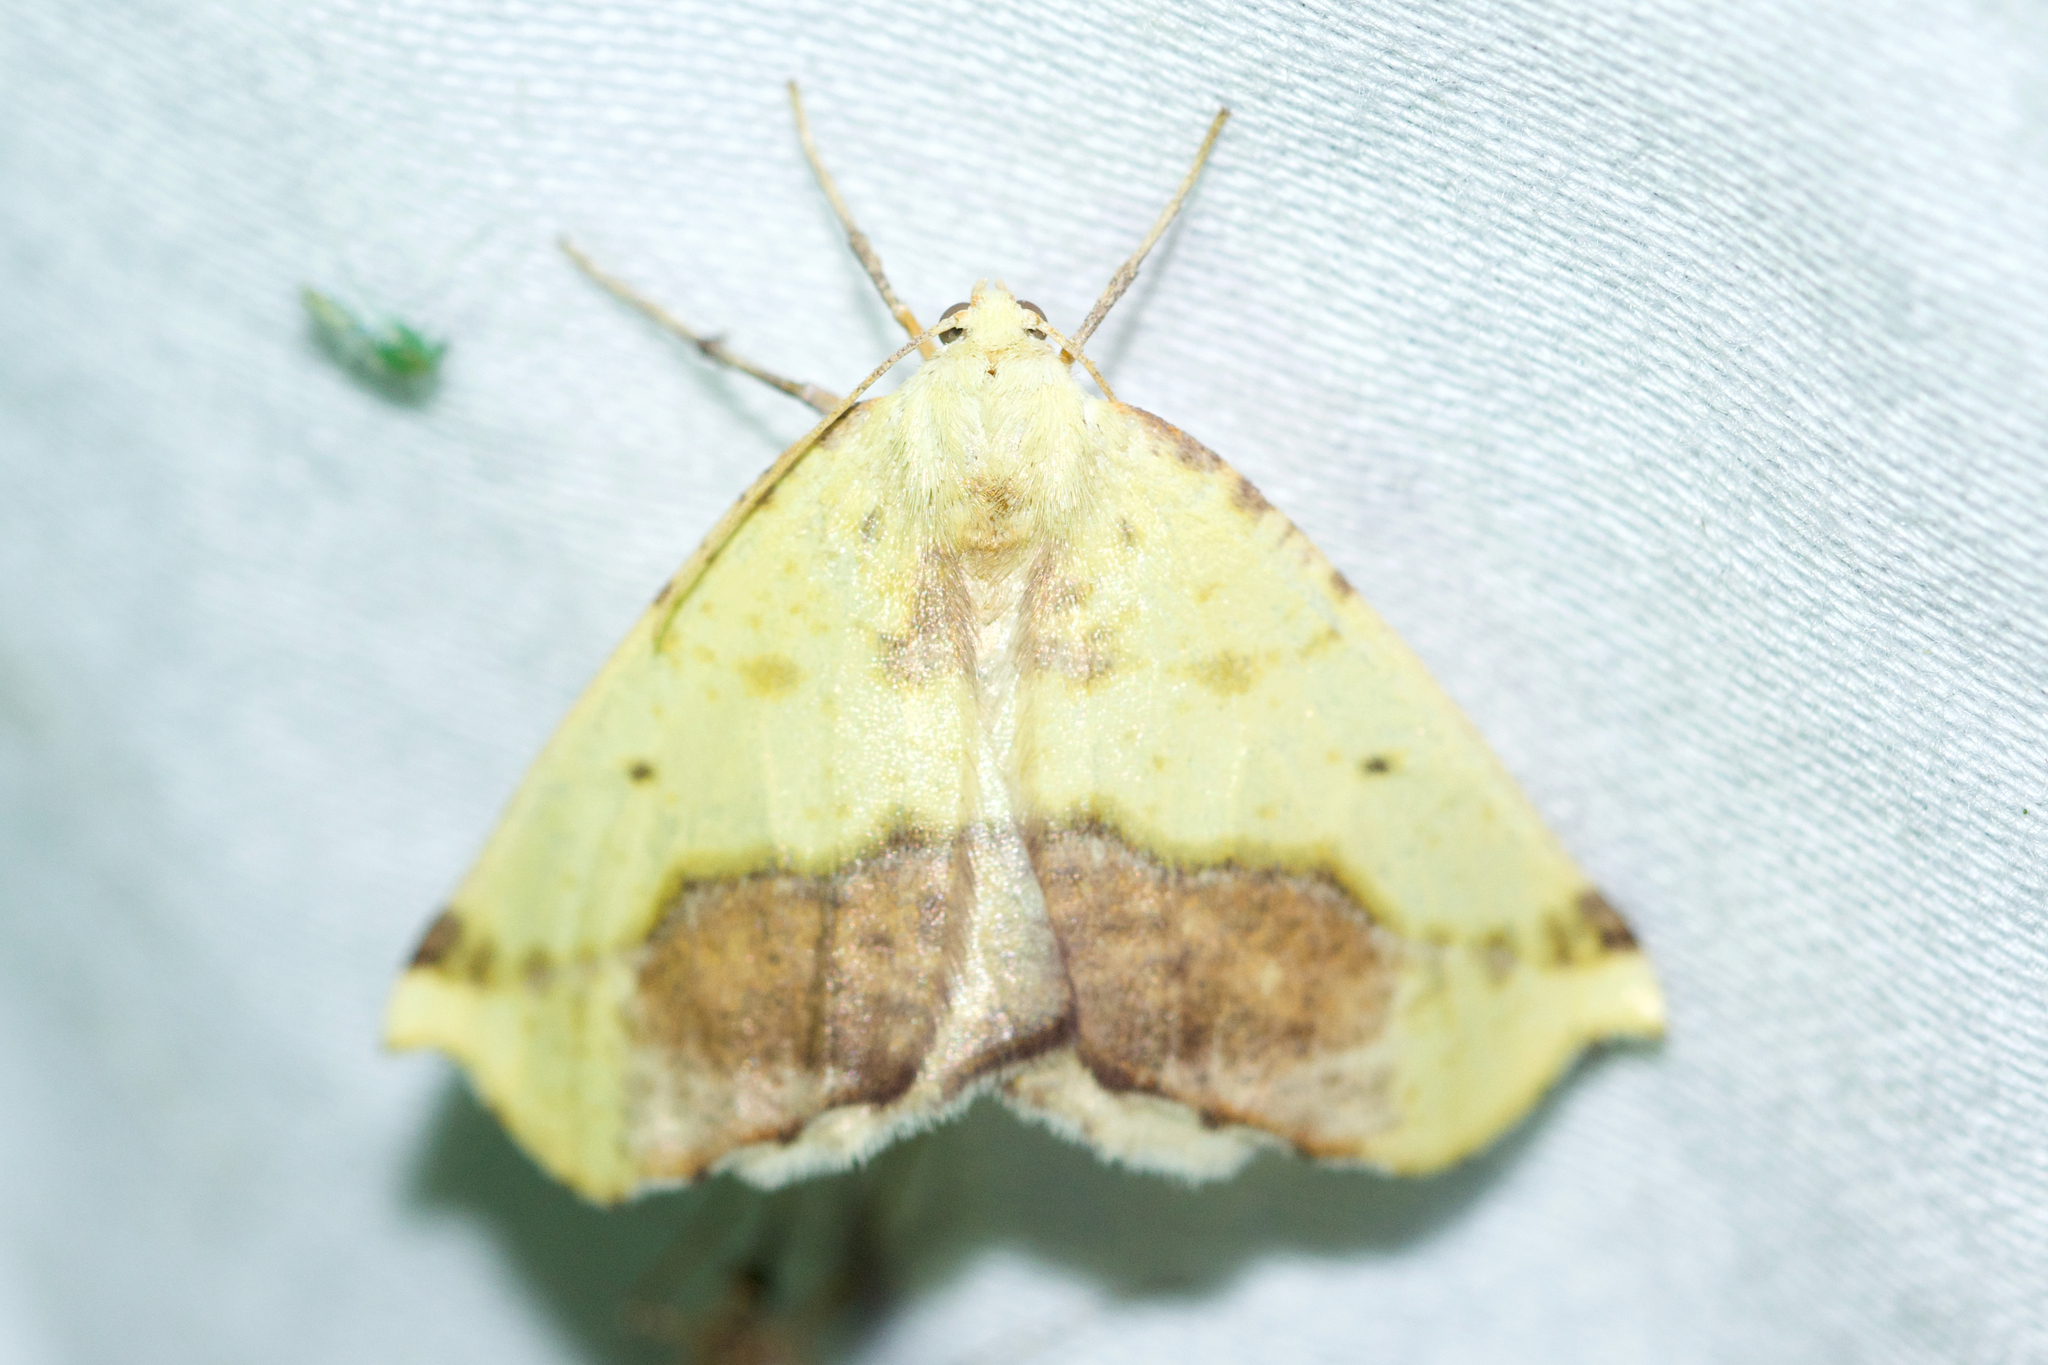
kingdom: Animalia
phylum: Arthropoda
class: Insecta
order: Lepidoptera
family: Geometridae
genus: Sicya
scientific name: Sicya macularia
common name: Sharp-lined yellow
